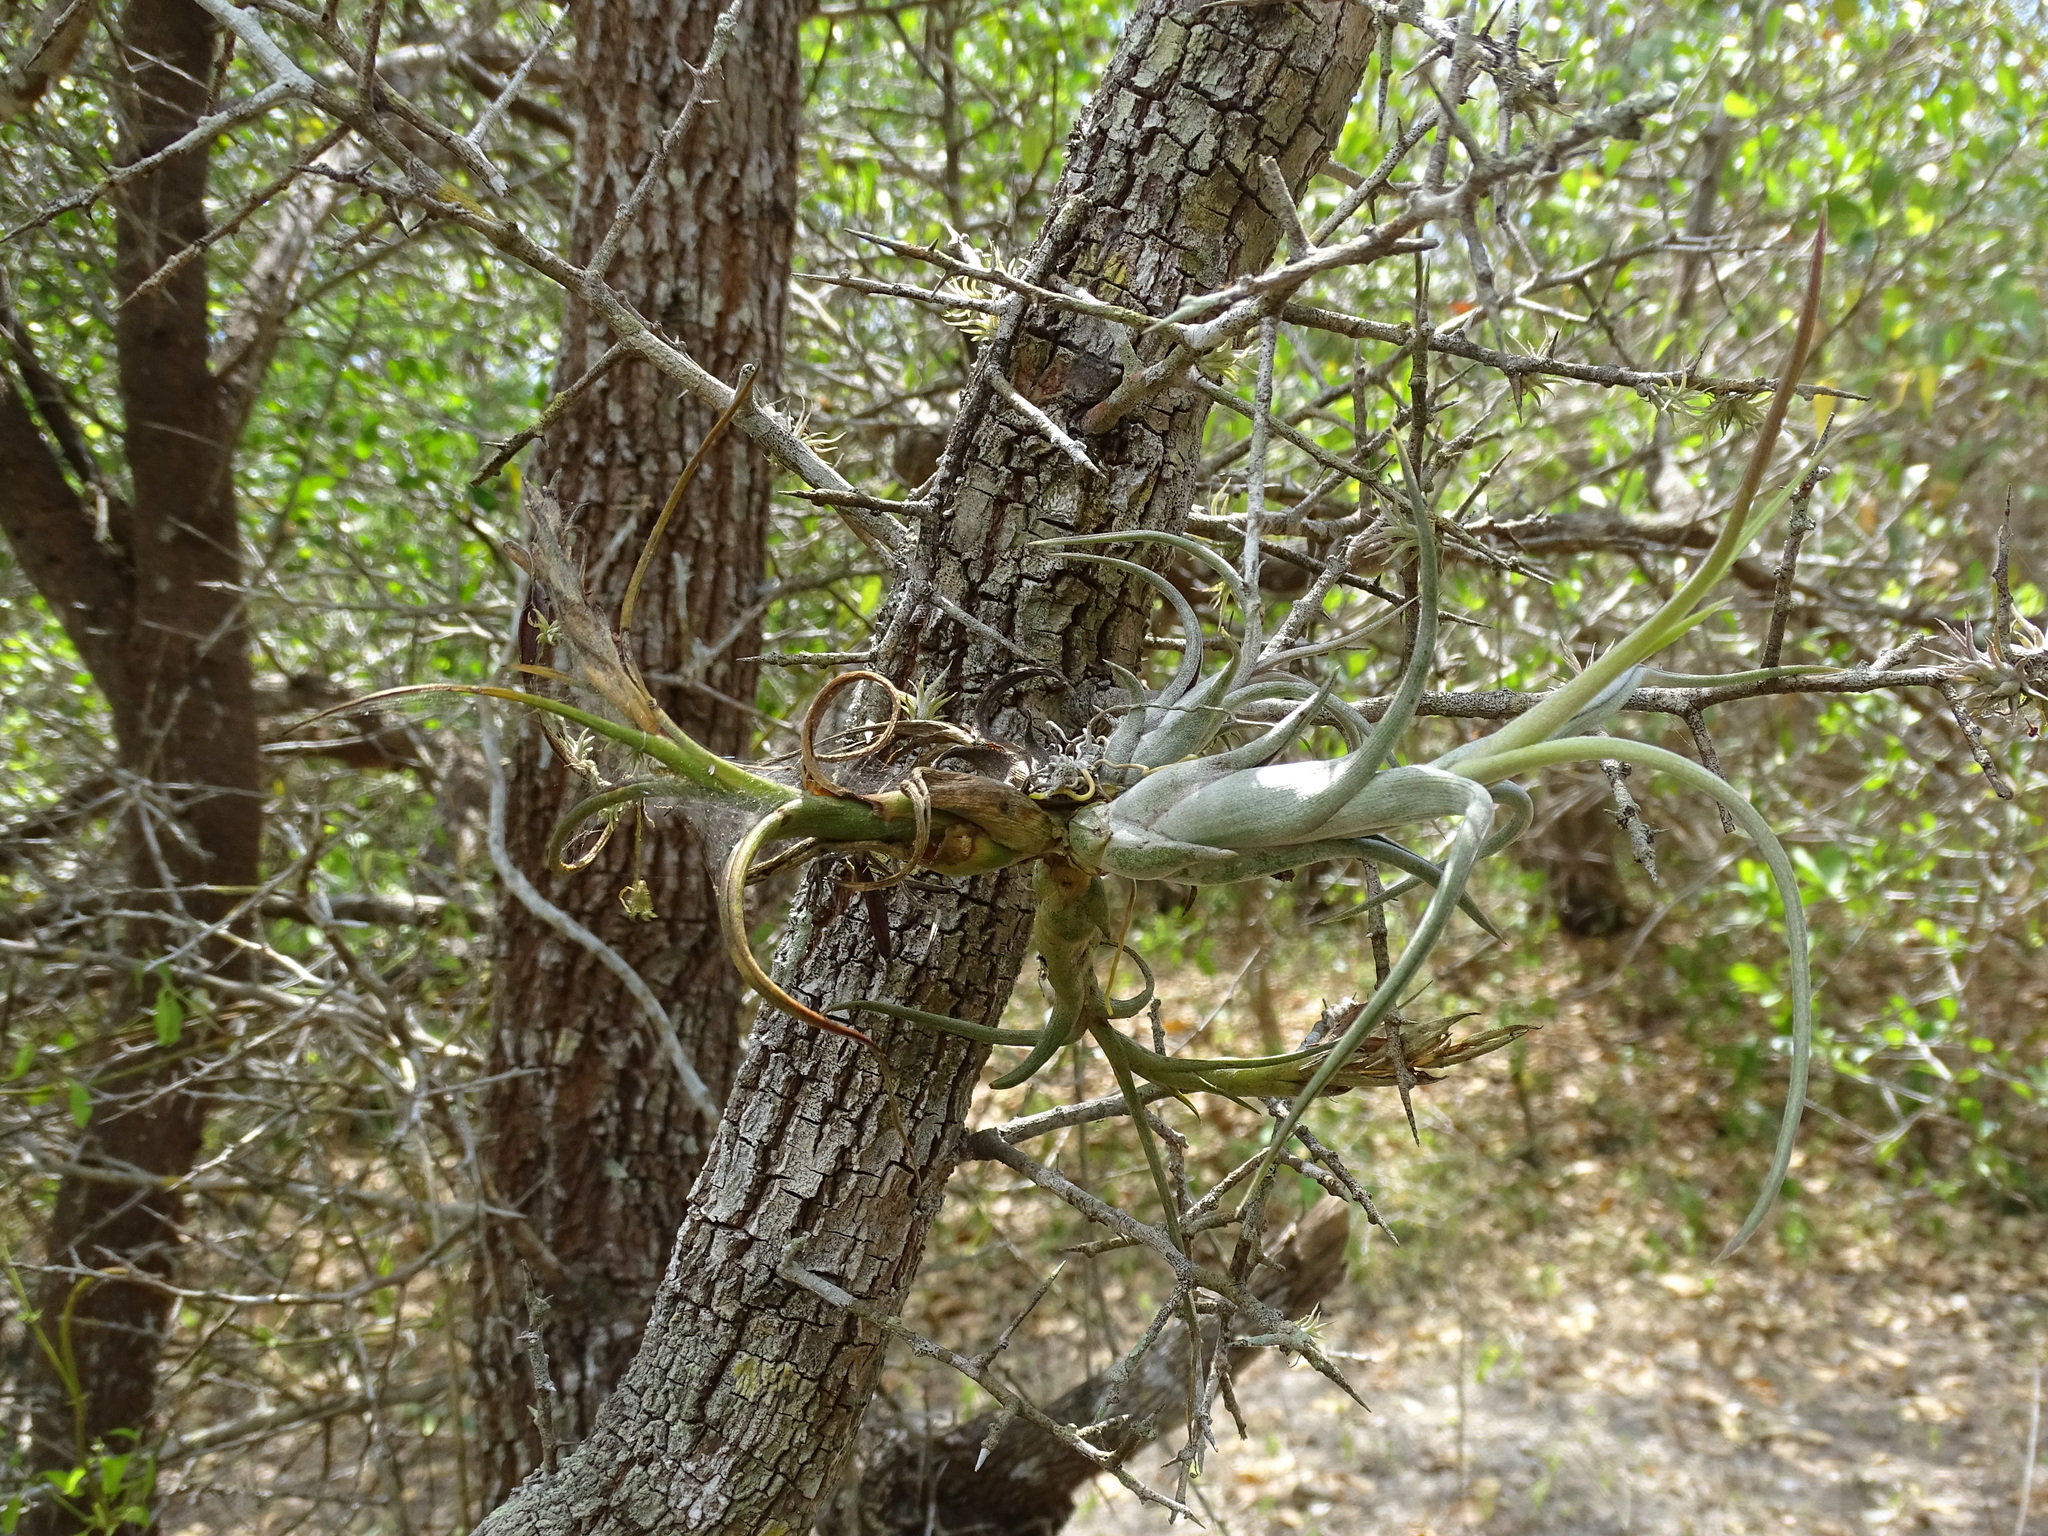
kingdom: Plantae
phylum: Tracheophyta
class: Liliopsida
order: Poales
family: Bromeliaceae
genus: Tillandsia
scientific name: Tillandsia paucifolia
